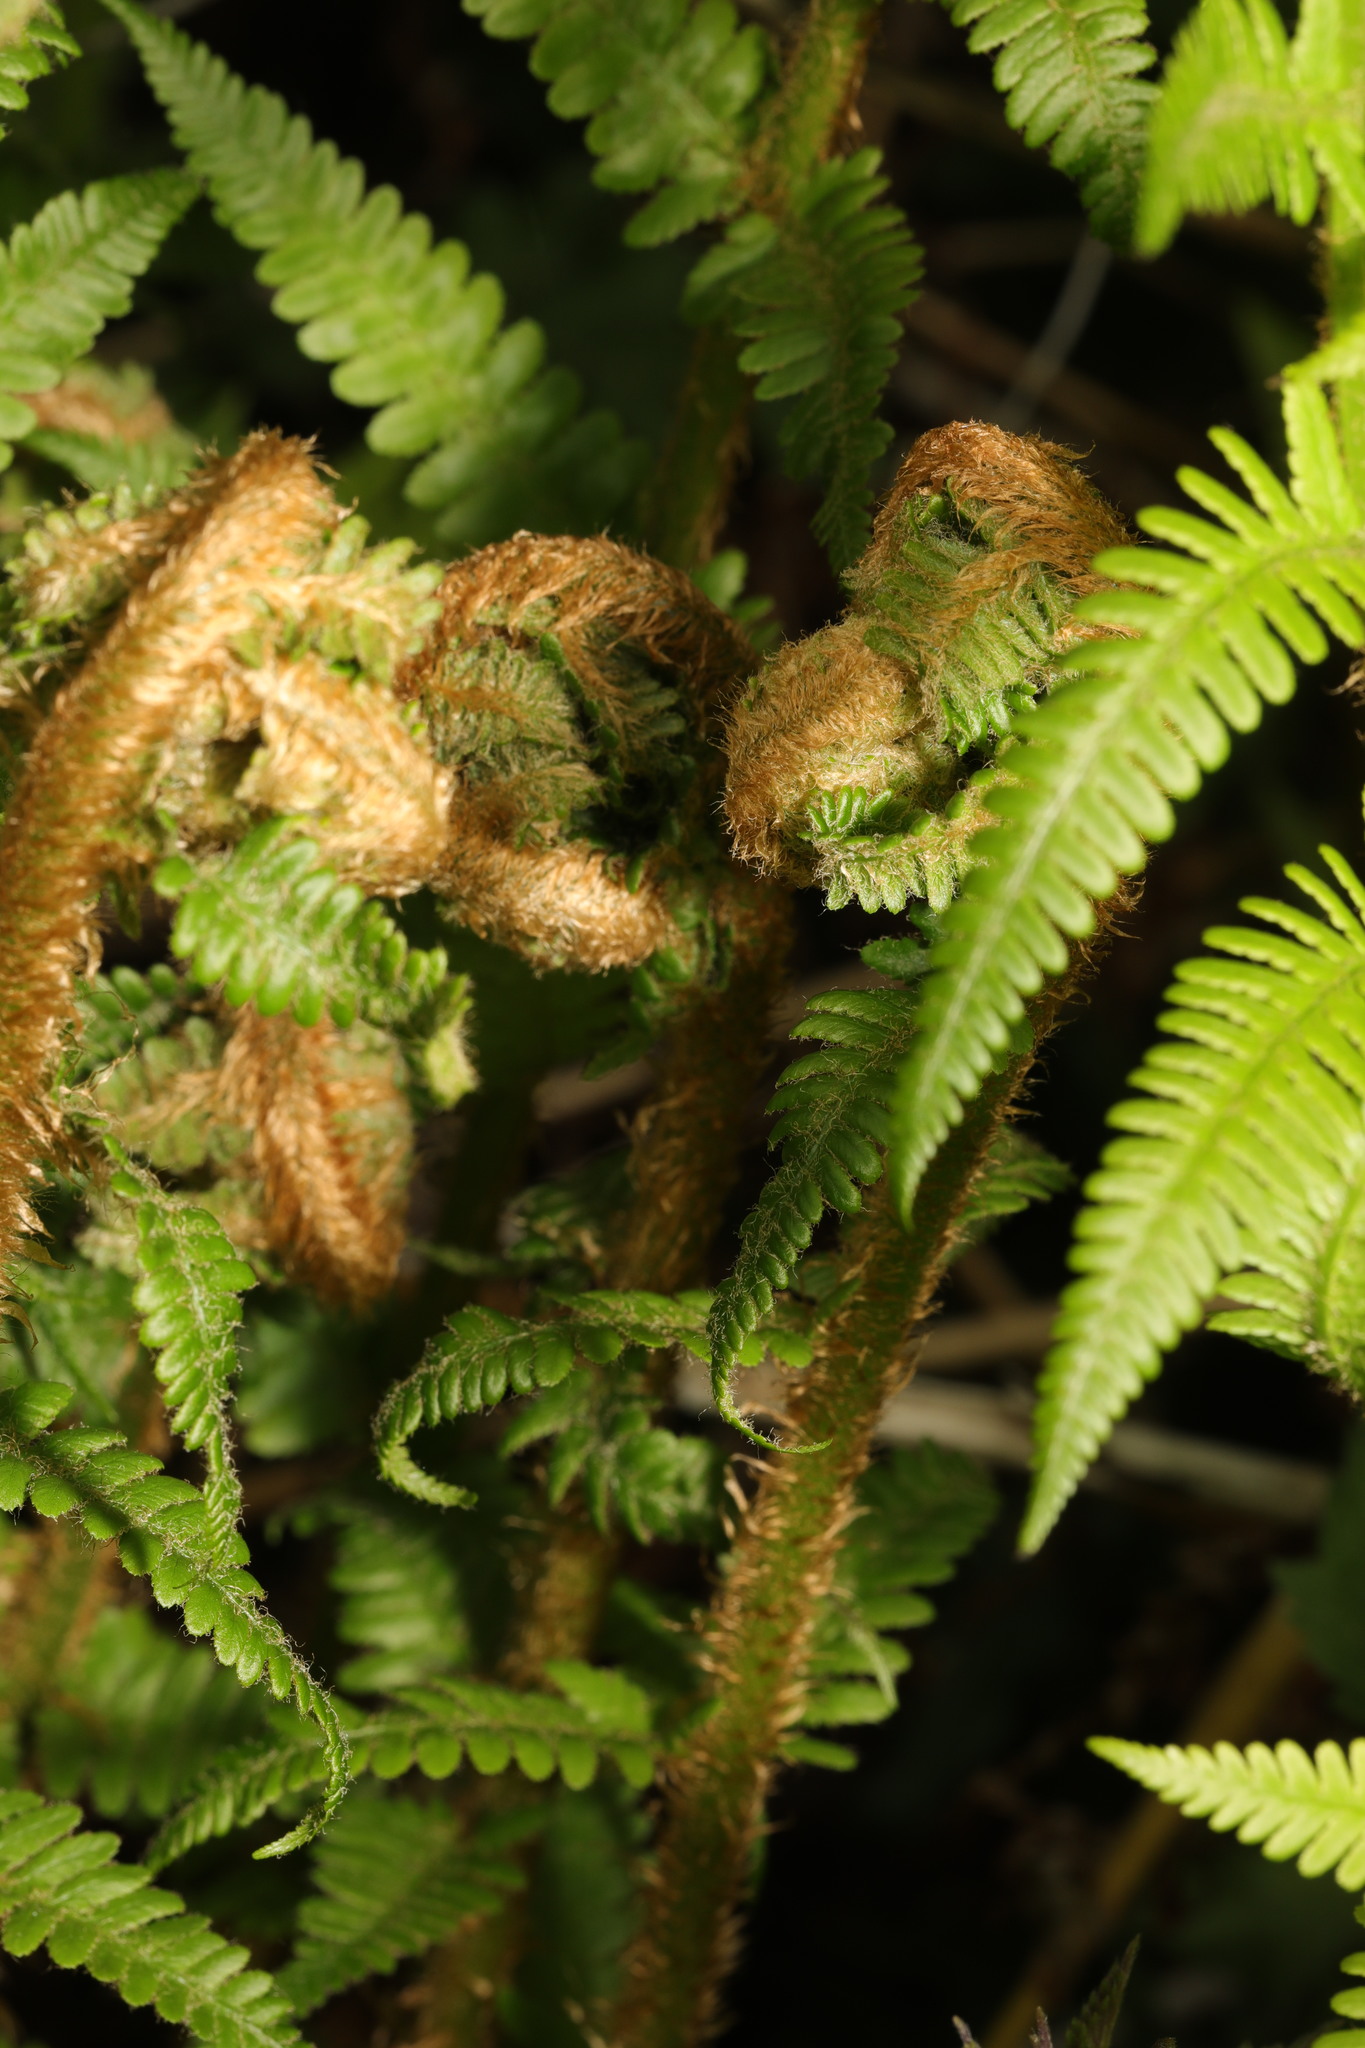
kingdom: Plantae
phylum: Tracheophyta
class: Polypodiopsida
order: Polypodiales
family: Dryopteridaceae
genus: Dryopteris
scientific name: Dryopteris filix-mas
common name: Male fern
